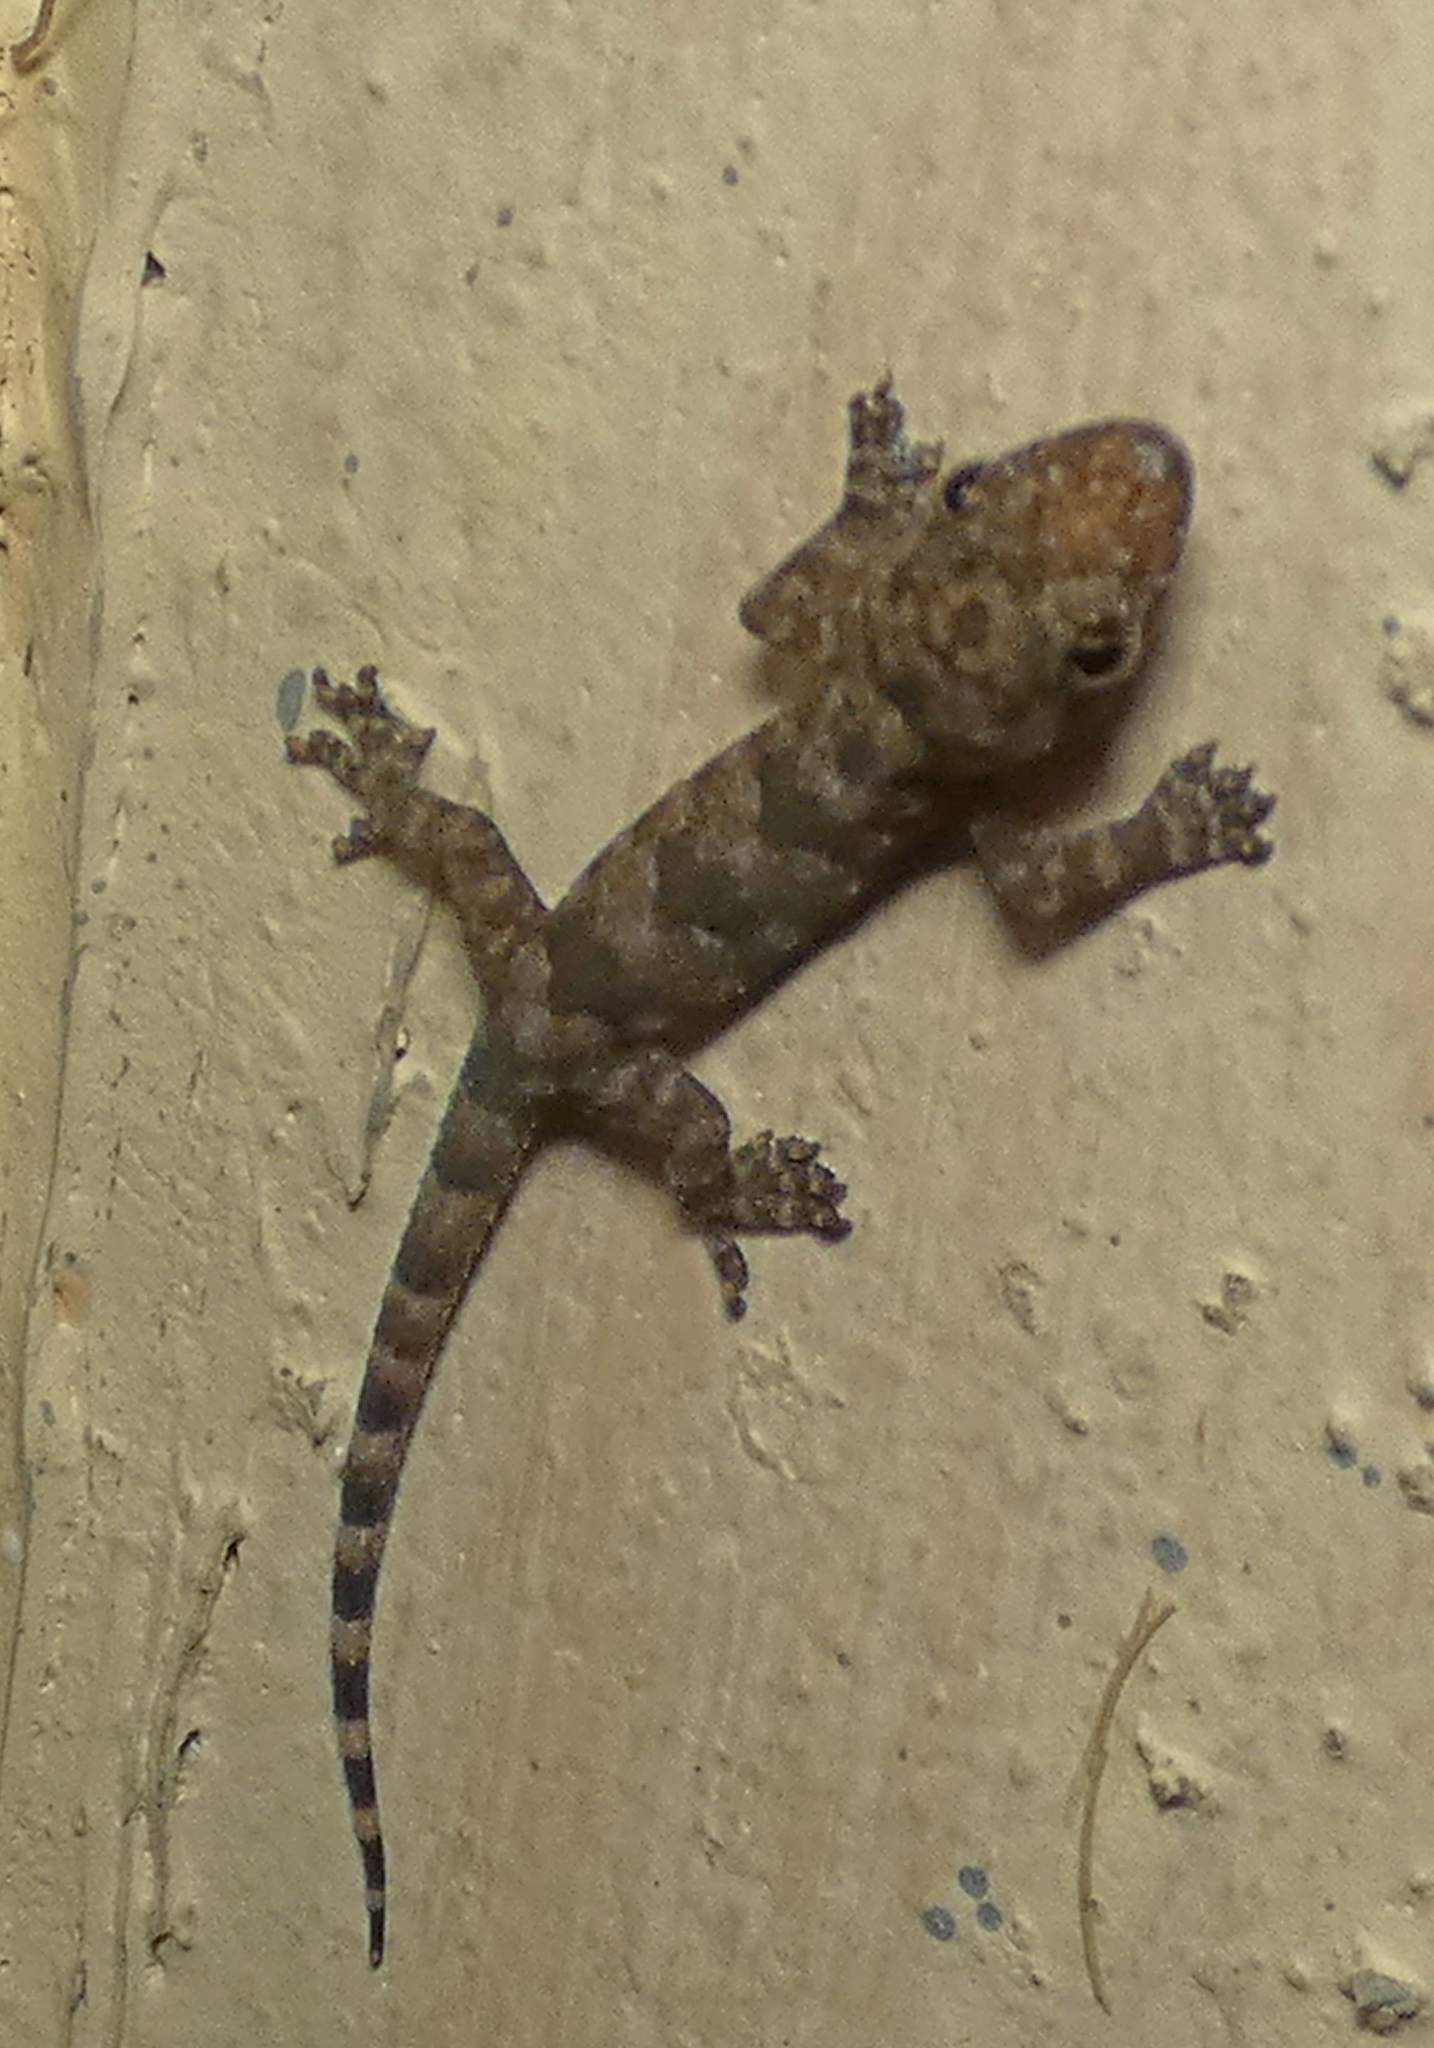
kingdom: Animalia
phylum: Chordata
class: Squamata
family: Gekkonidae
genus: Hemidactylus
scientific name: Hemidactylus mabouia
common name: House gecko
